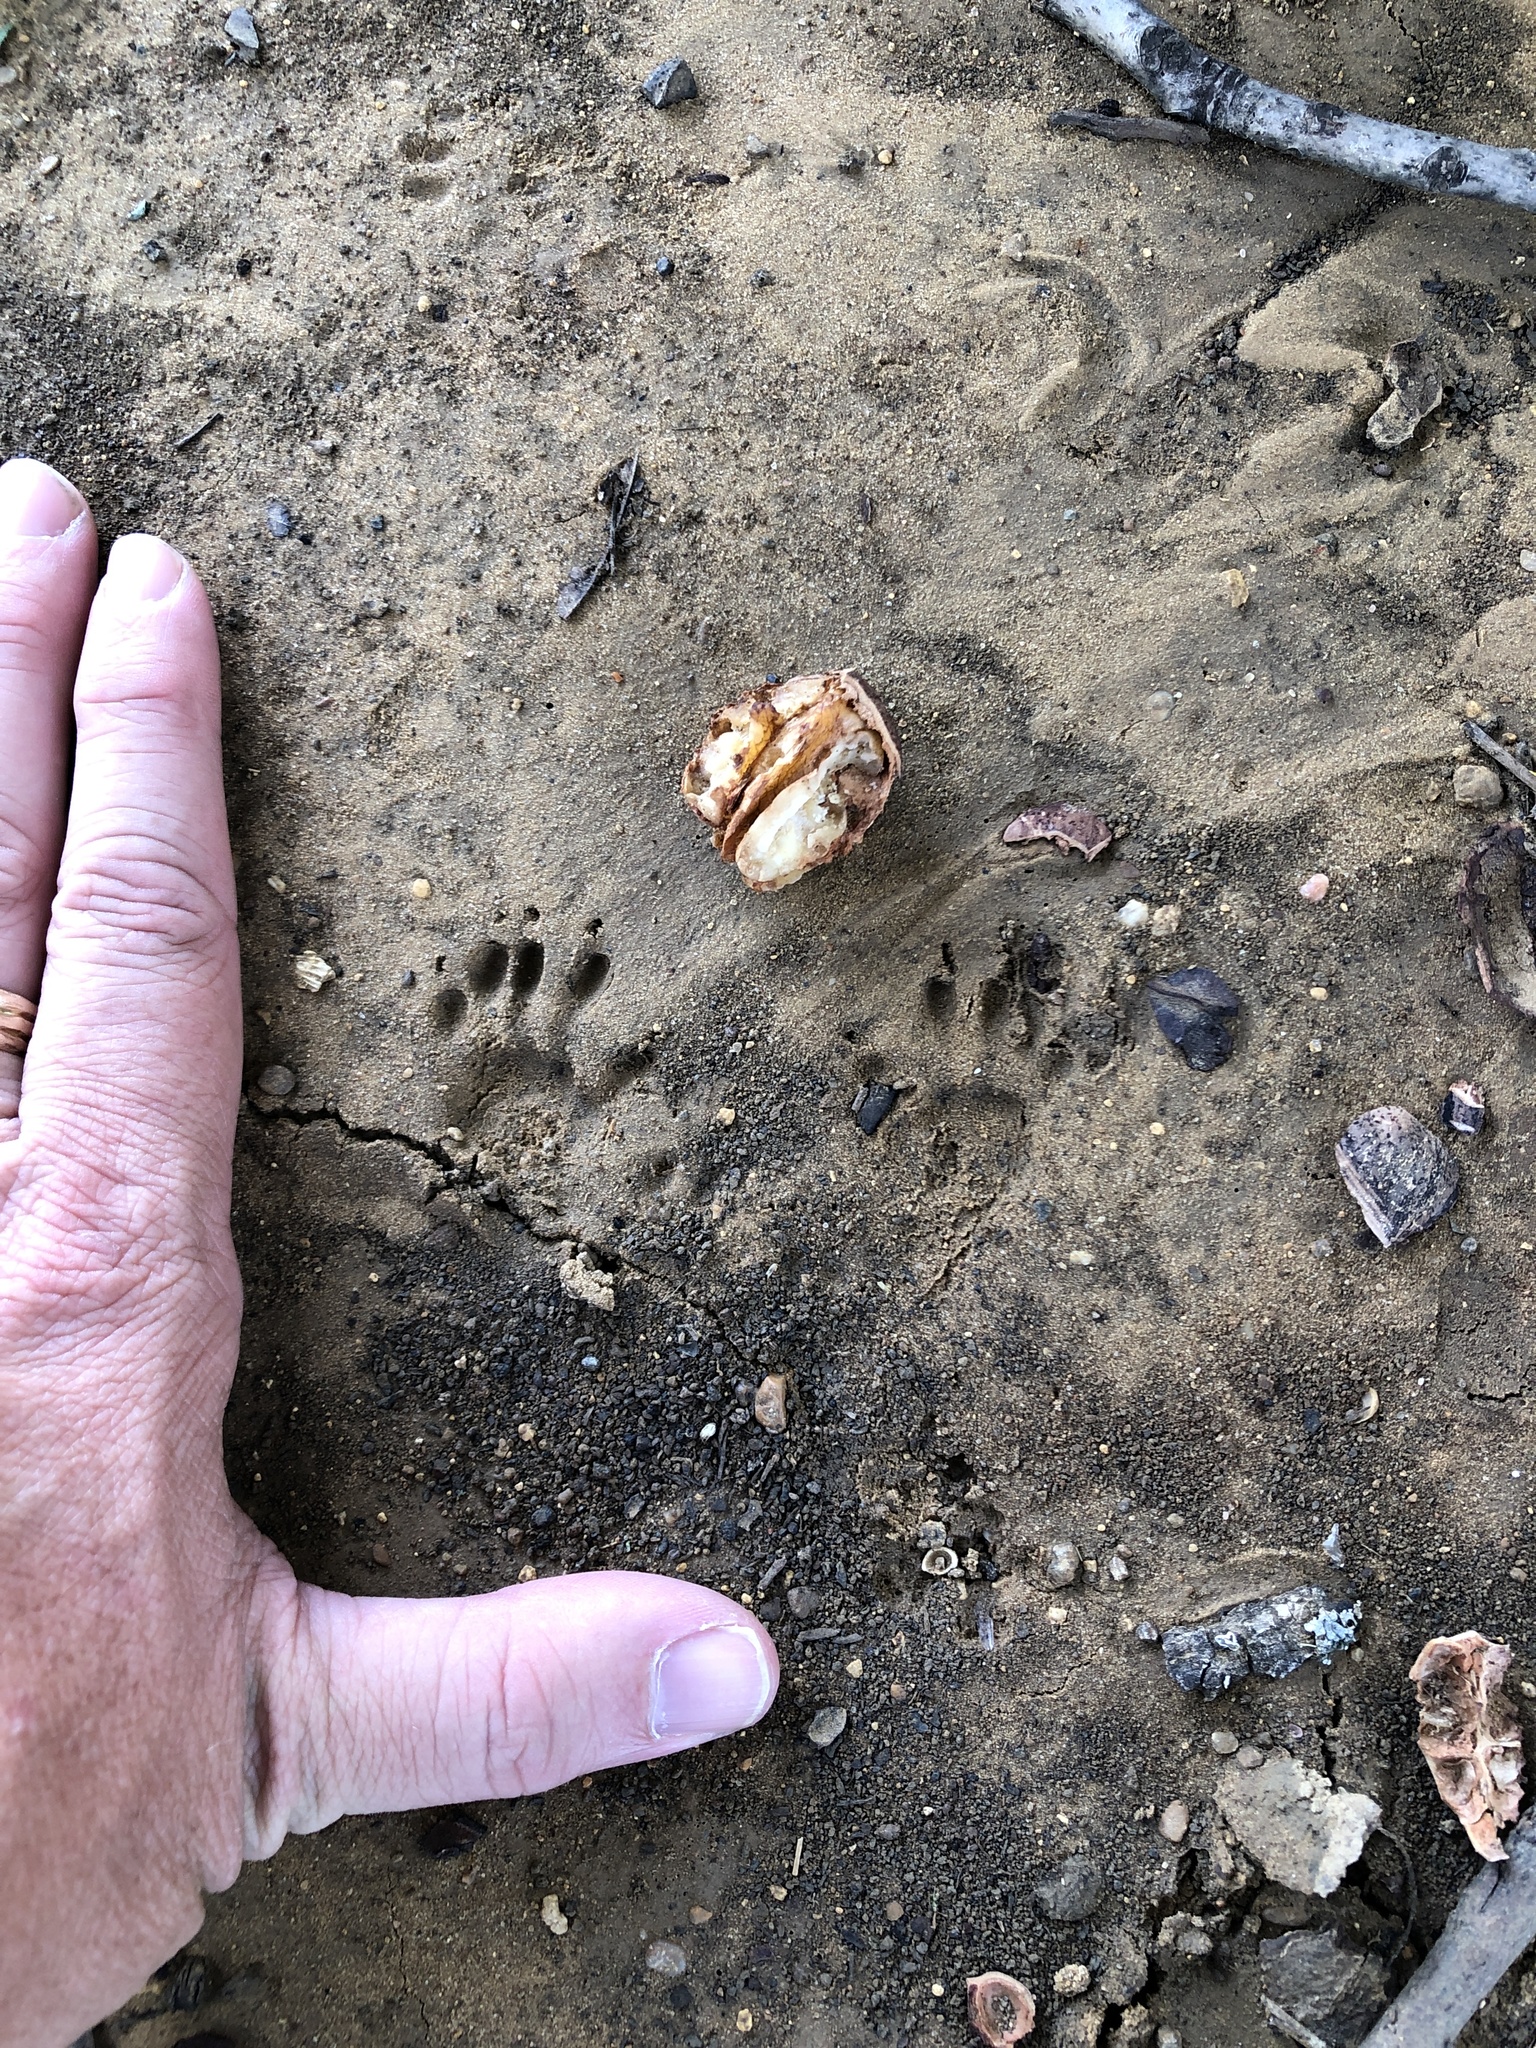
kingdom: Animalia
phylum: Chordata
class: Mammalia
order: Rodentia
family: Sciuridae
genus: Sciurus
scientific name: Sciurus niger
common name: Fox squirrel
